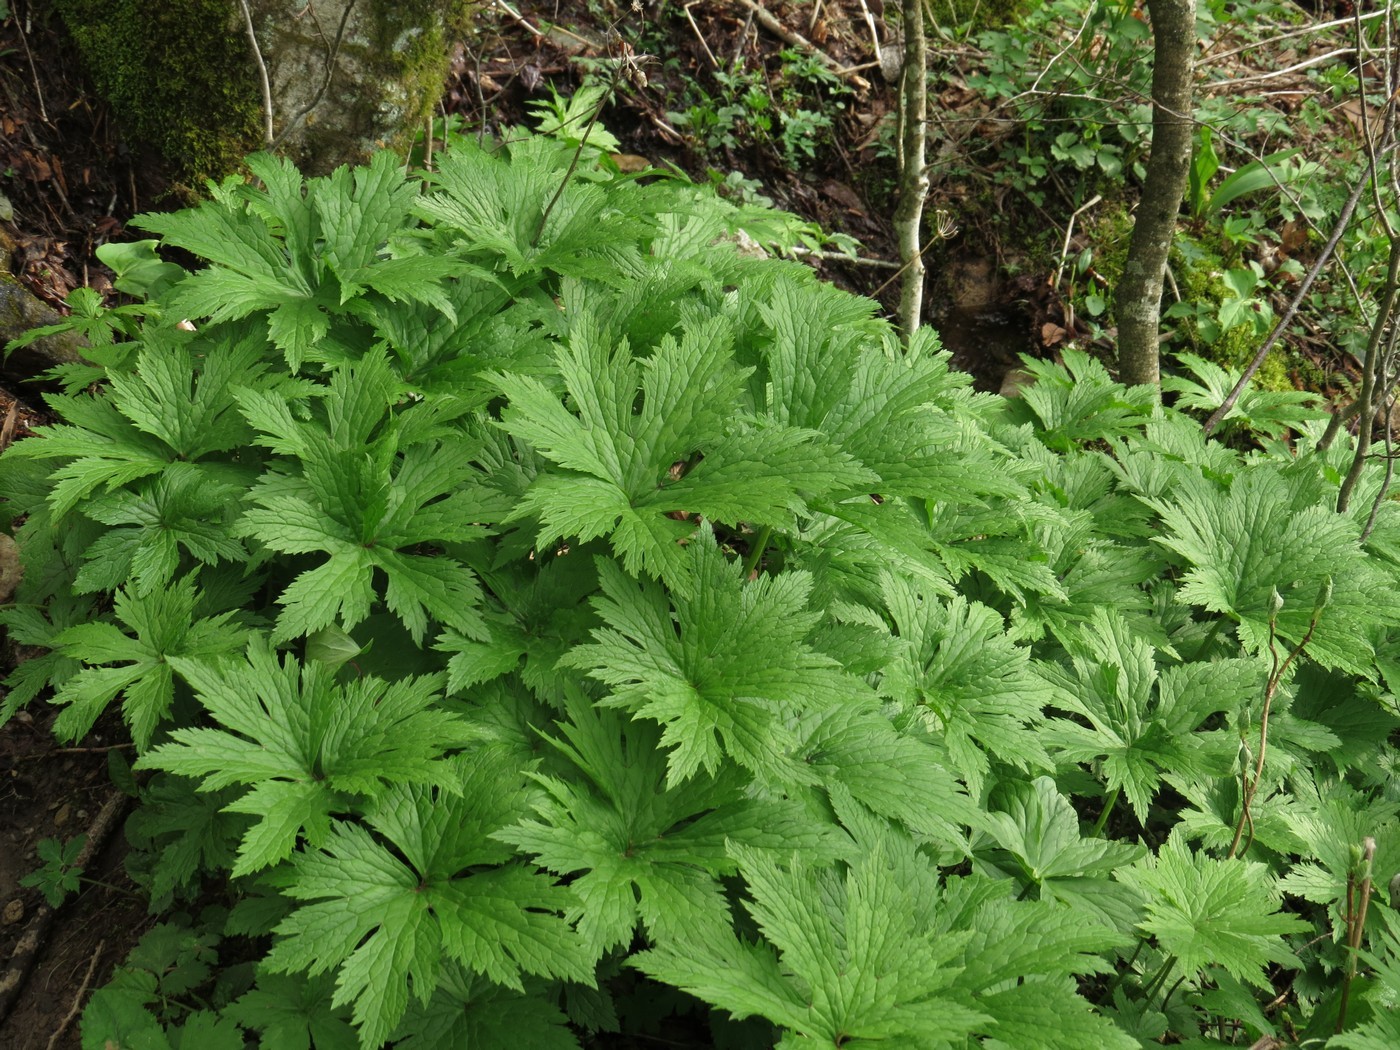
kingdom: Plantae
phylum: Tracheophyta
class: Magnoliopsida
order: Ranunculales
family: Ranunculaceae
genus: Trautvetteria
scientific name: Trautvetteria carolinensis
